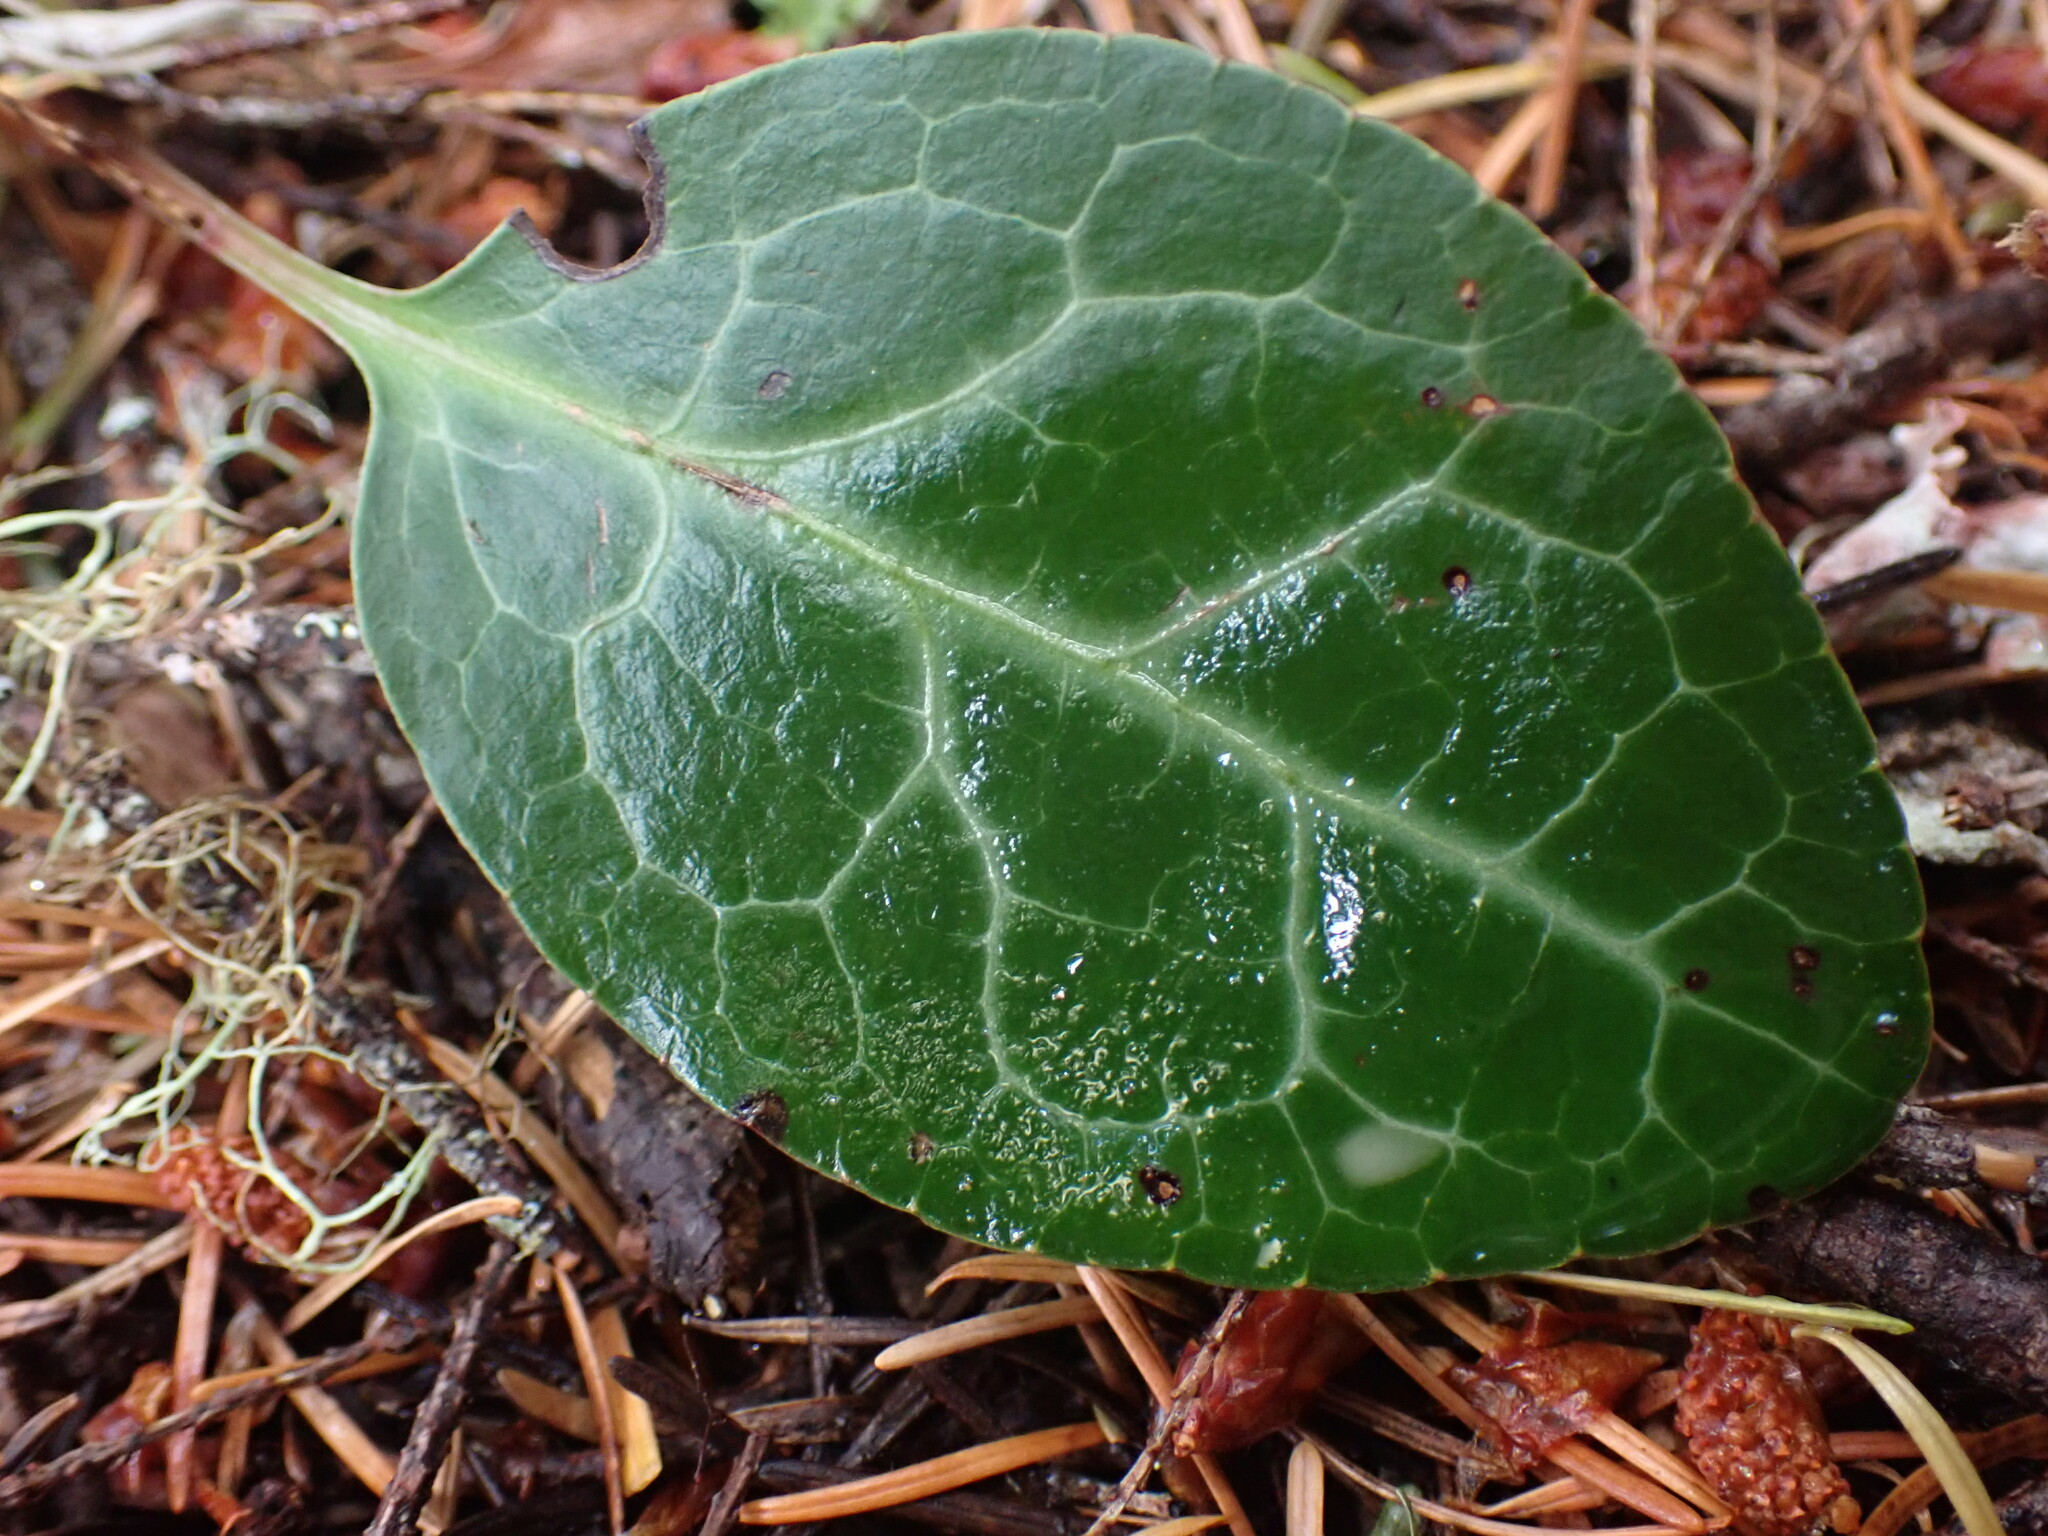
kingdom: Plantae
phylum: Tracheophyta
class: Magnoliopsida
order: Ericales
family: Ericaceae
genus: Pyrola
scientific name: Pyrola picta
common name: White-vein wintergreen
